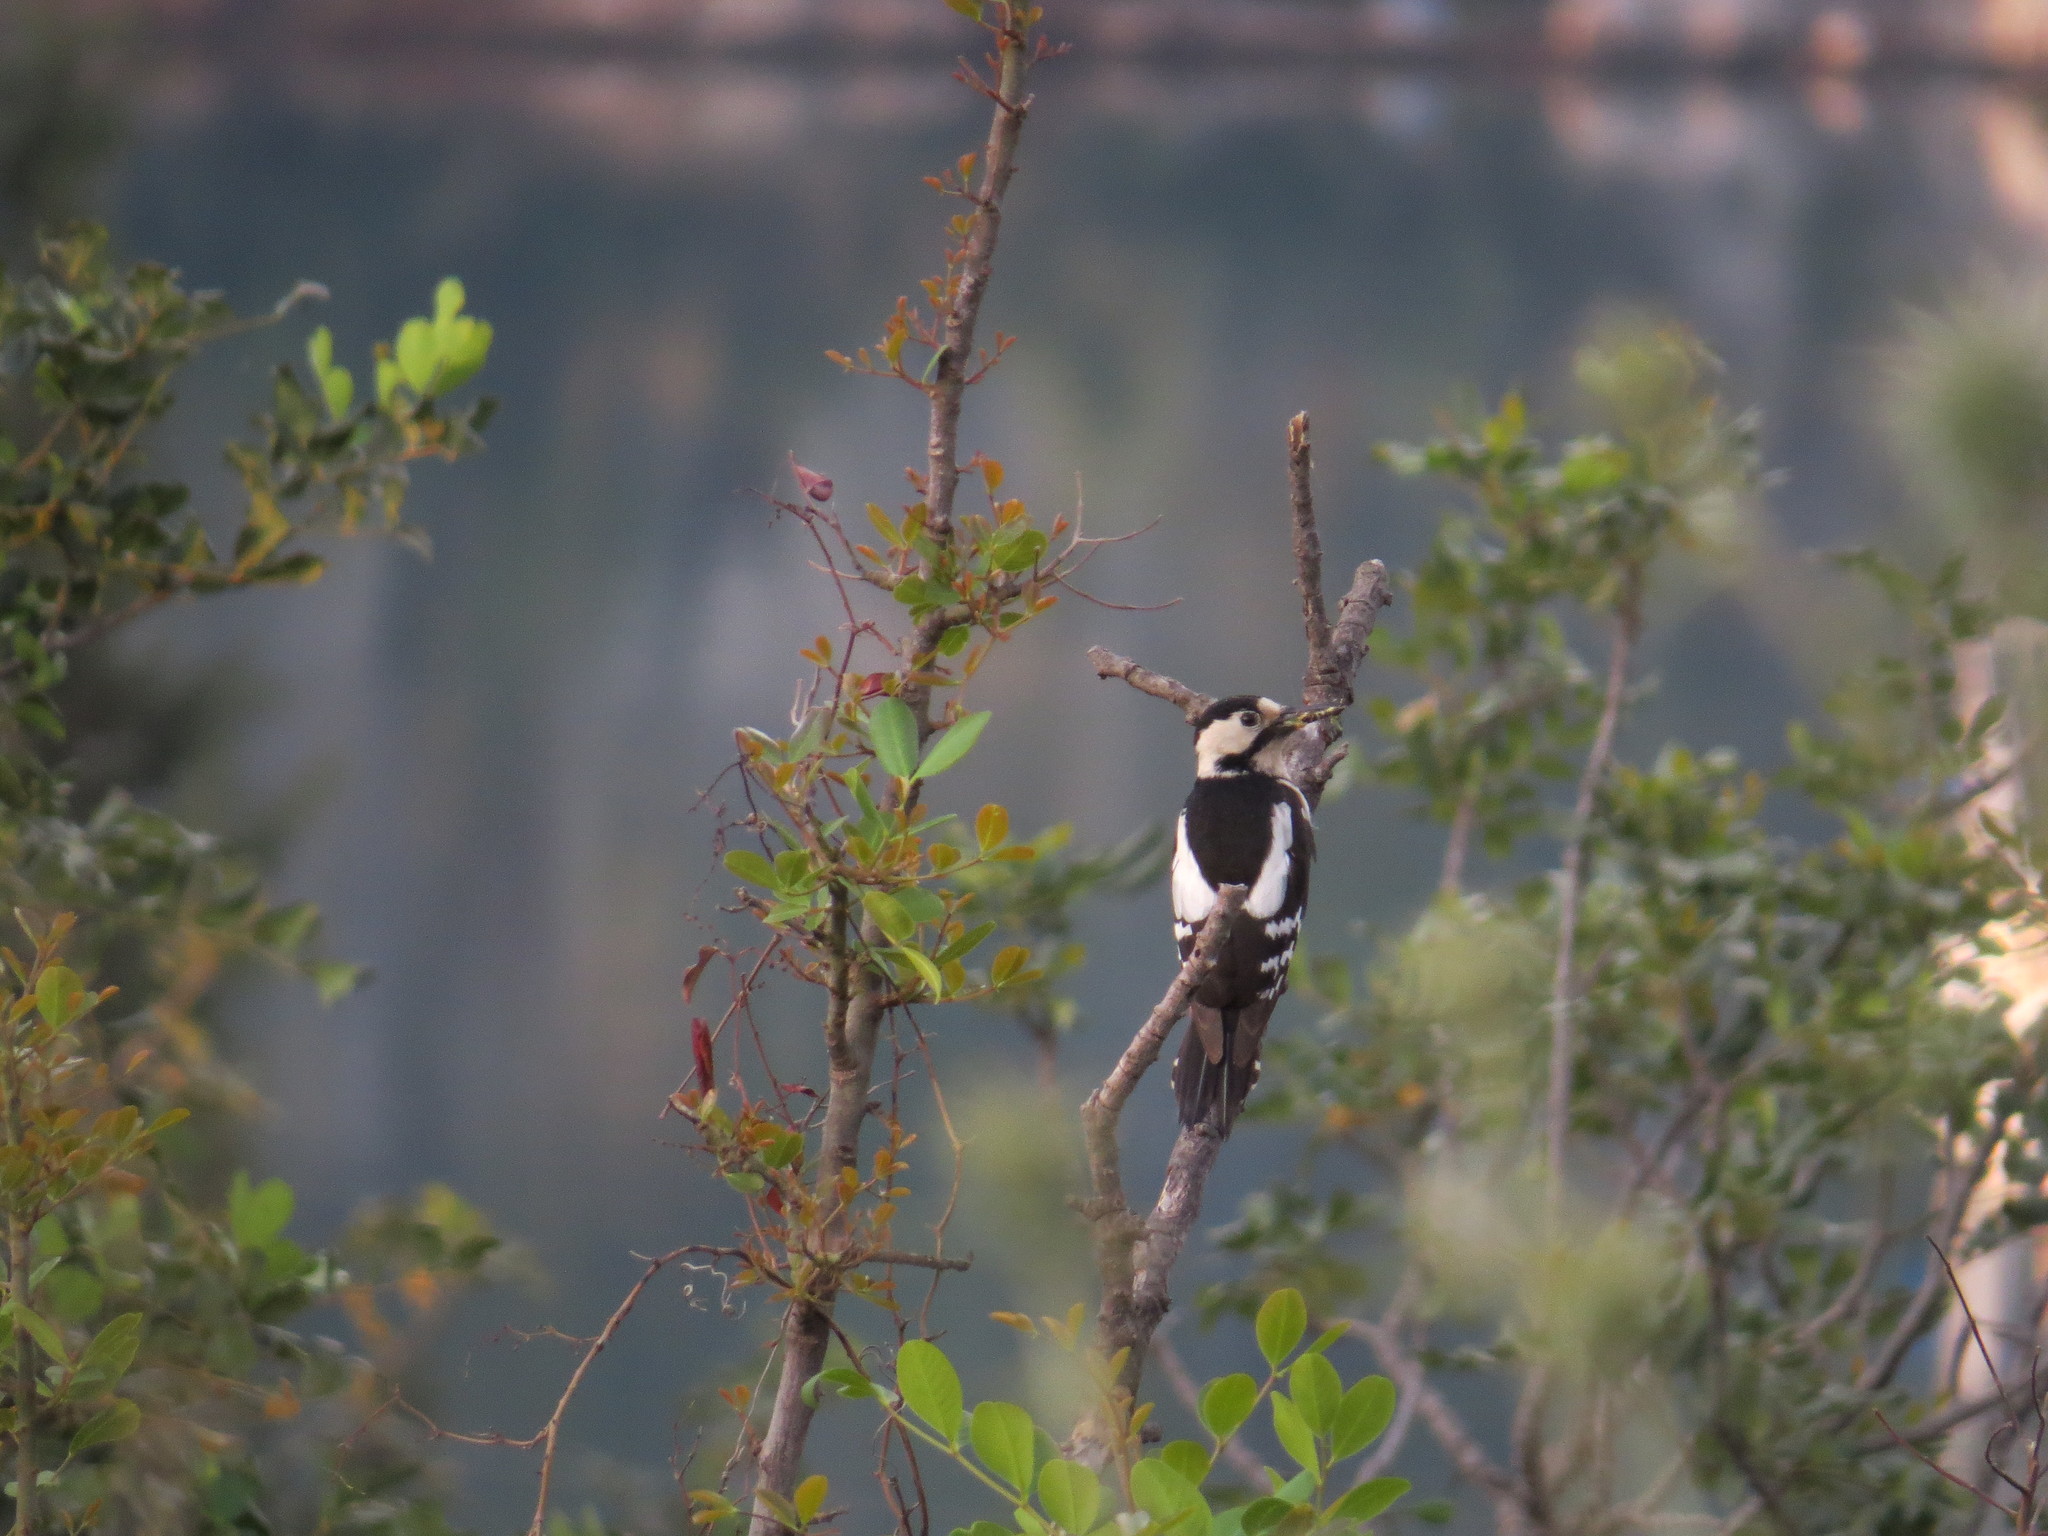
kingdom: Animalia
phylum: Chordata
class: Aves
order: Piciformes
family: Picidae
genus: Dendrocopos
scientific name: Dendrocopos syriacus
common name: Syrian woodpecker
